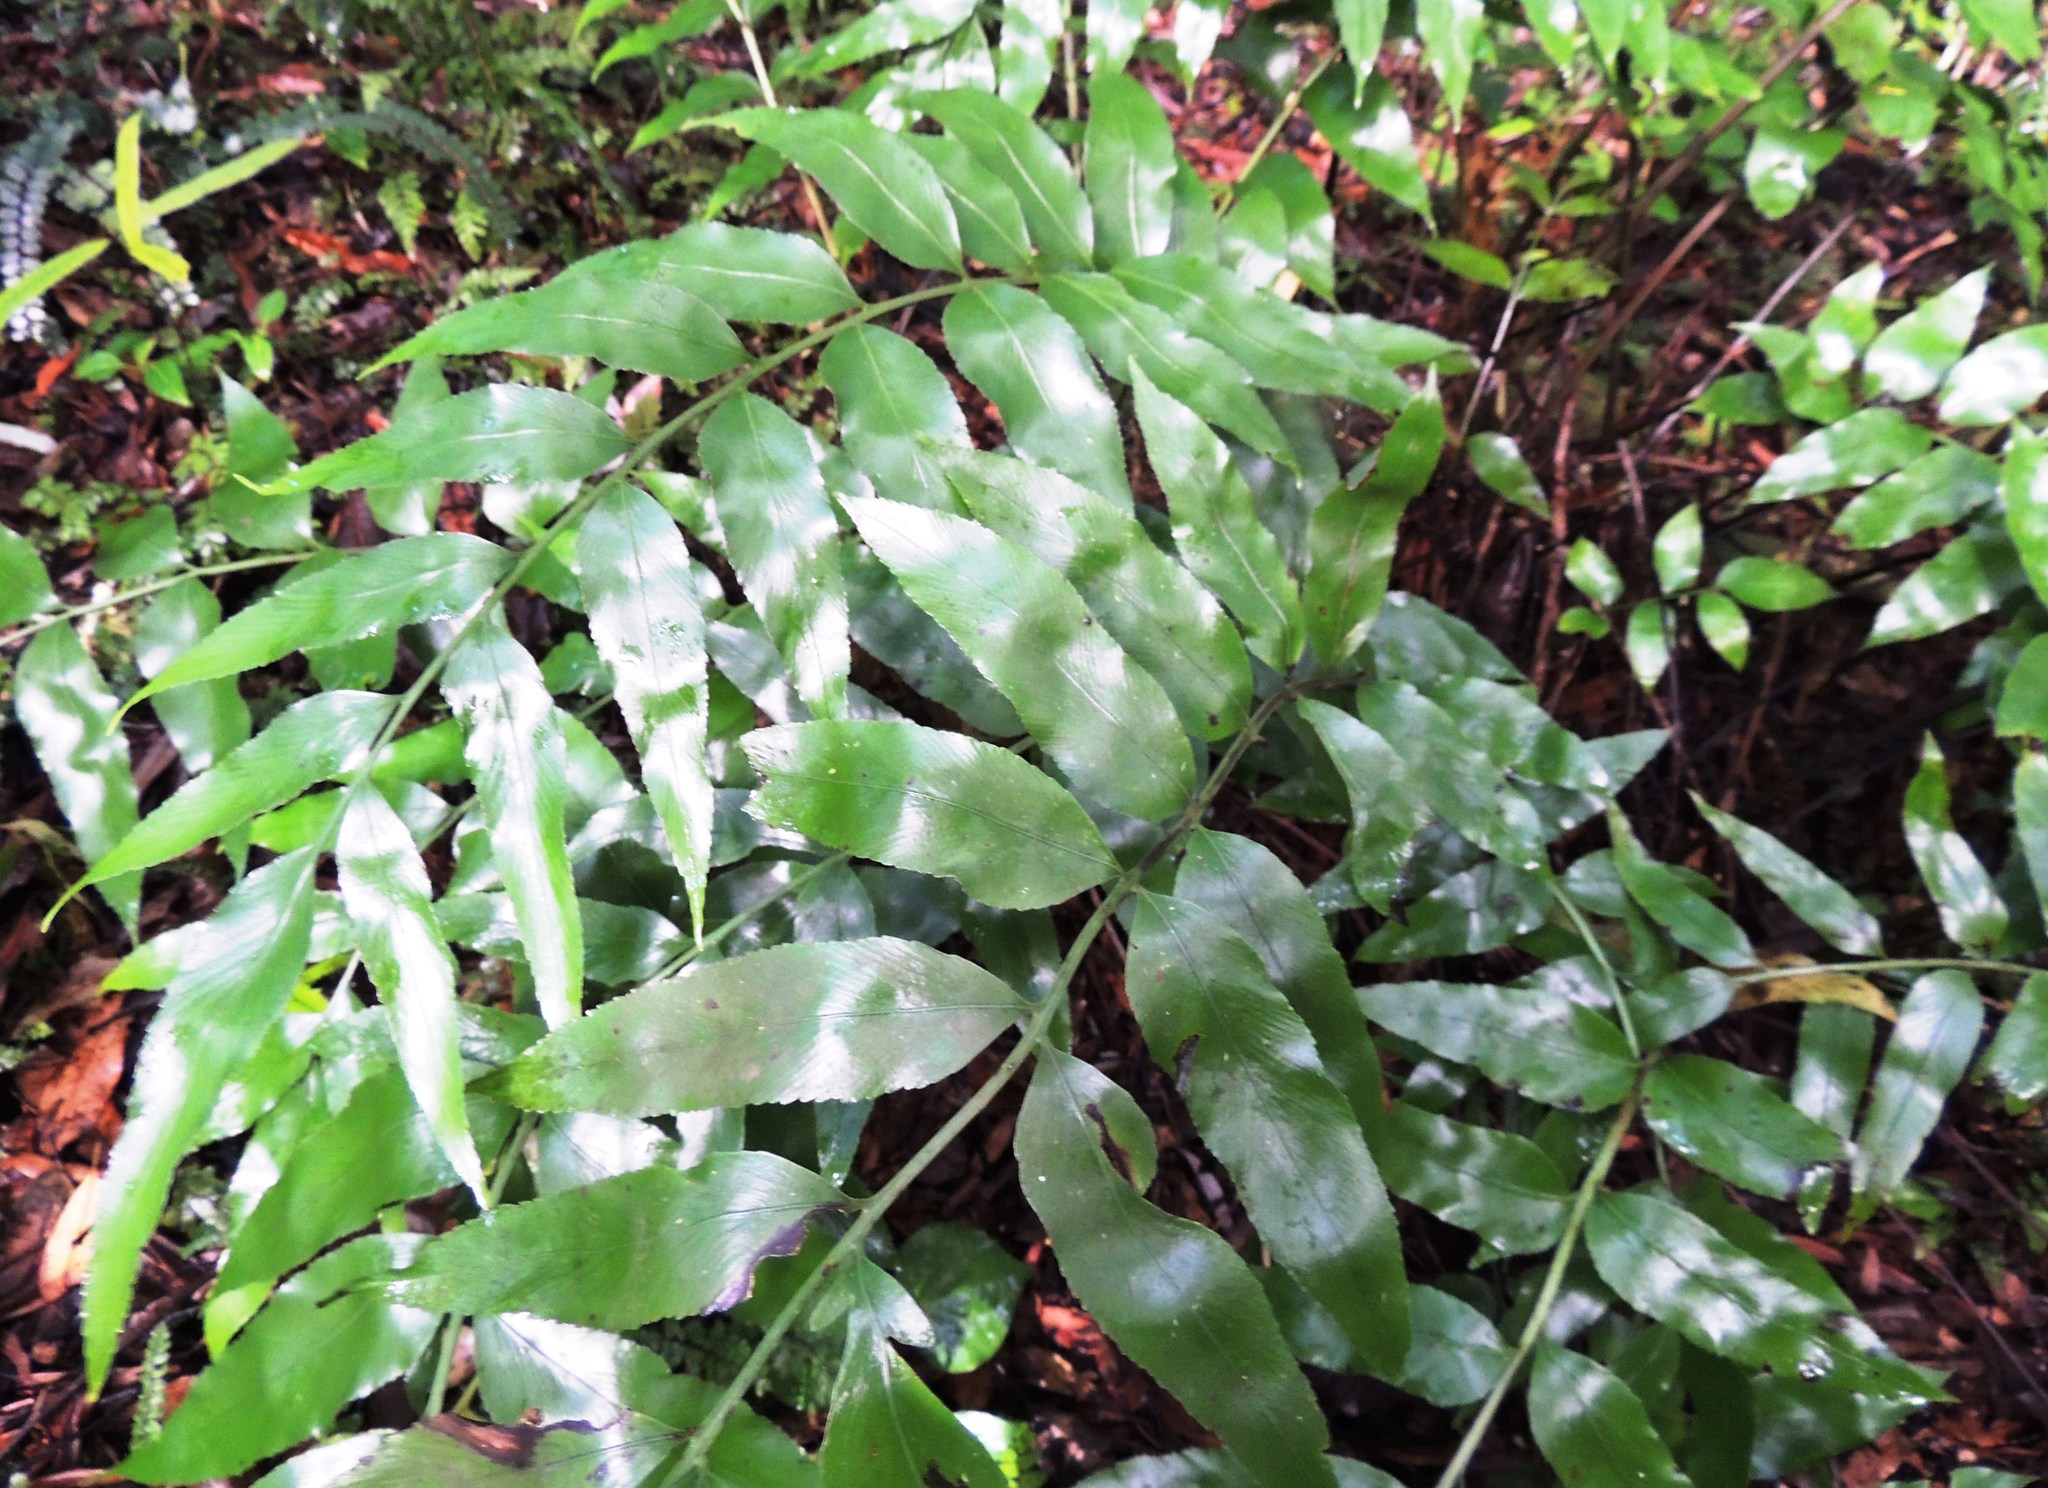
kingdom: Plantae
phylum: Tracheophyta
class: Polypodiopsida
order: Polypodiales
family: Aspleniaceae
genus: Asplenium
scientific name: Asplenium oblongifolium
